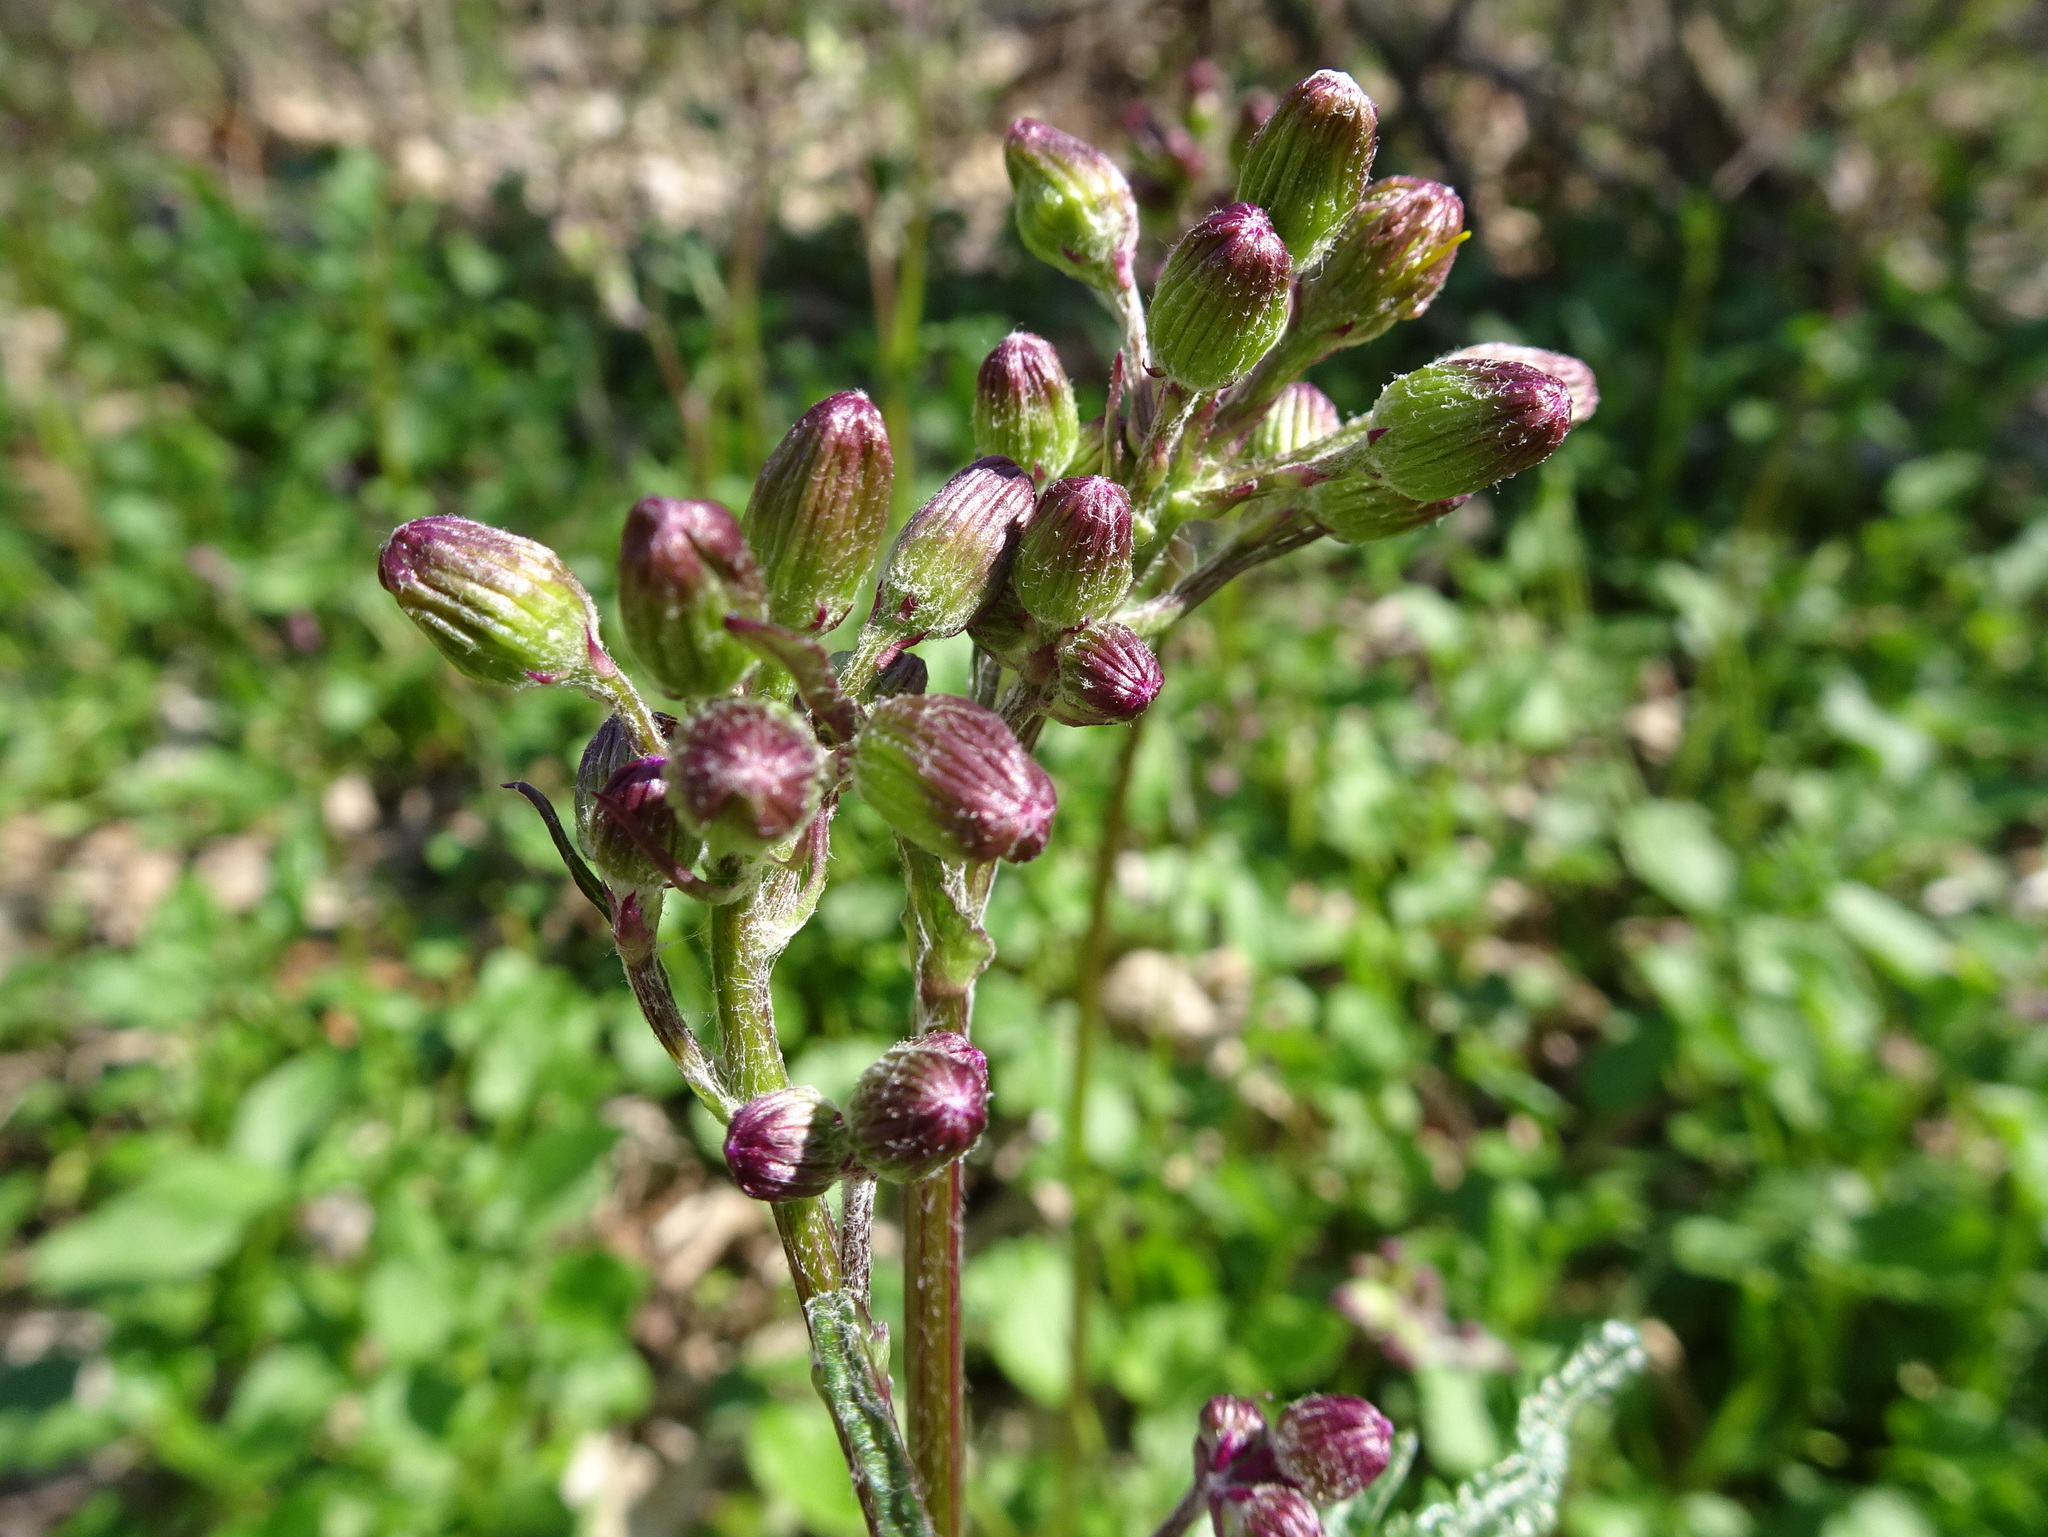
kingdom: Plantae
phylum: Tracheophyta
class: Magnoliopsida
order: Asterales
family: Asteraceae
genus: Packera
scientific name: Packera aurea
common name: Golden groundsel
